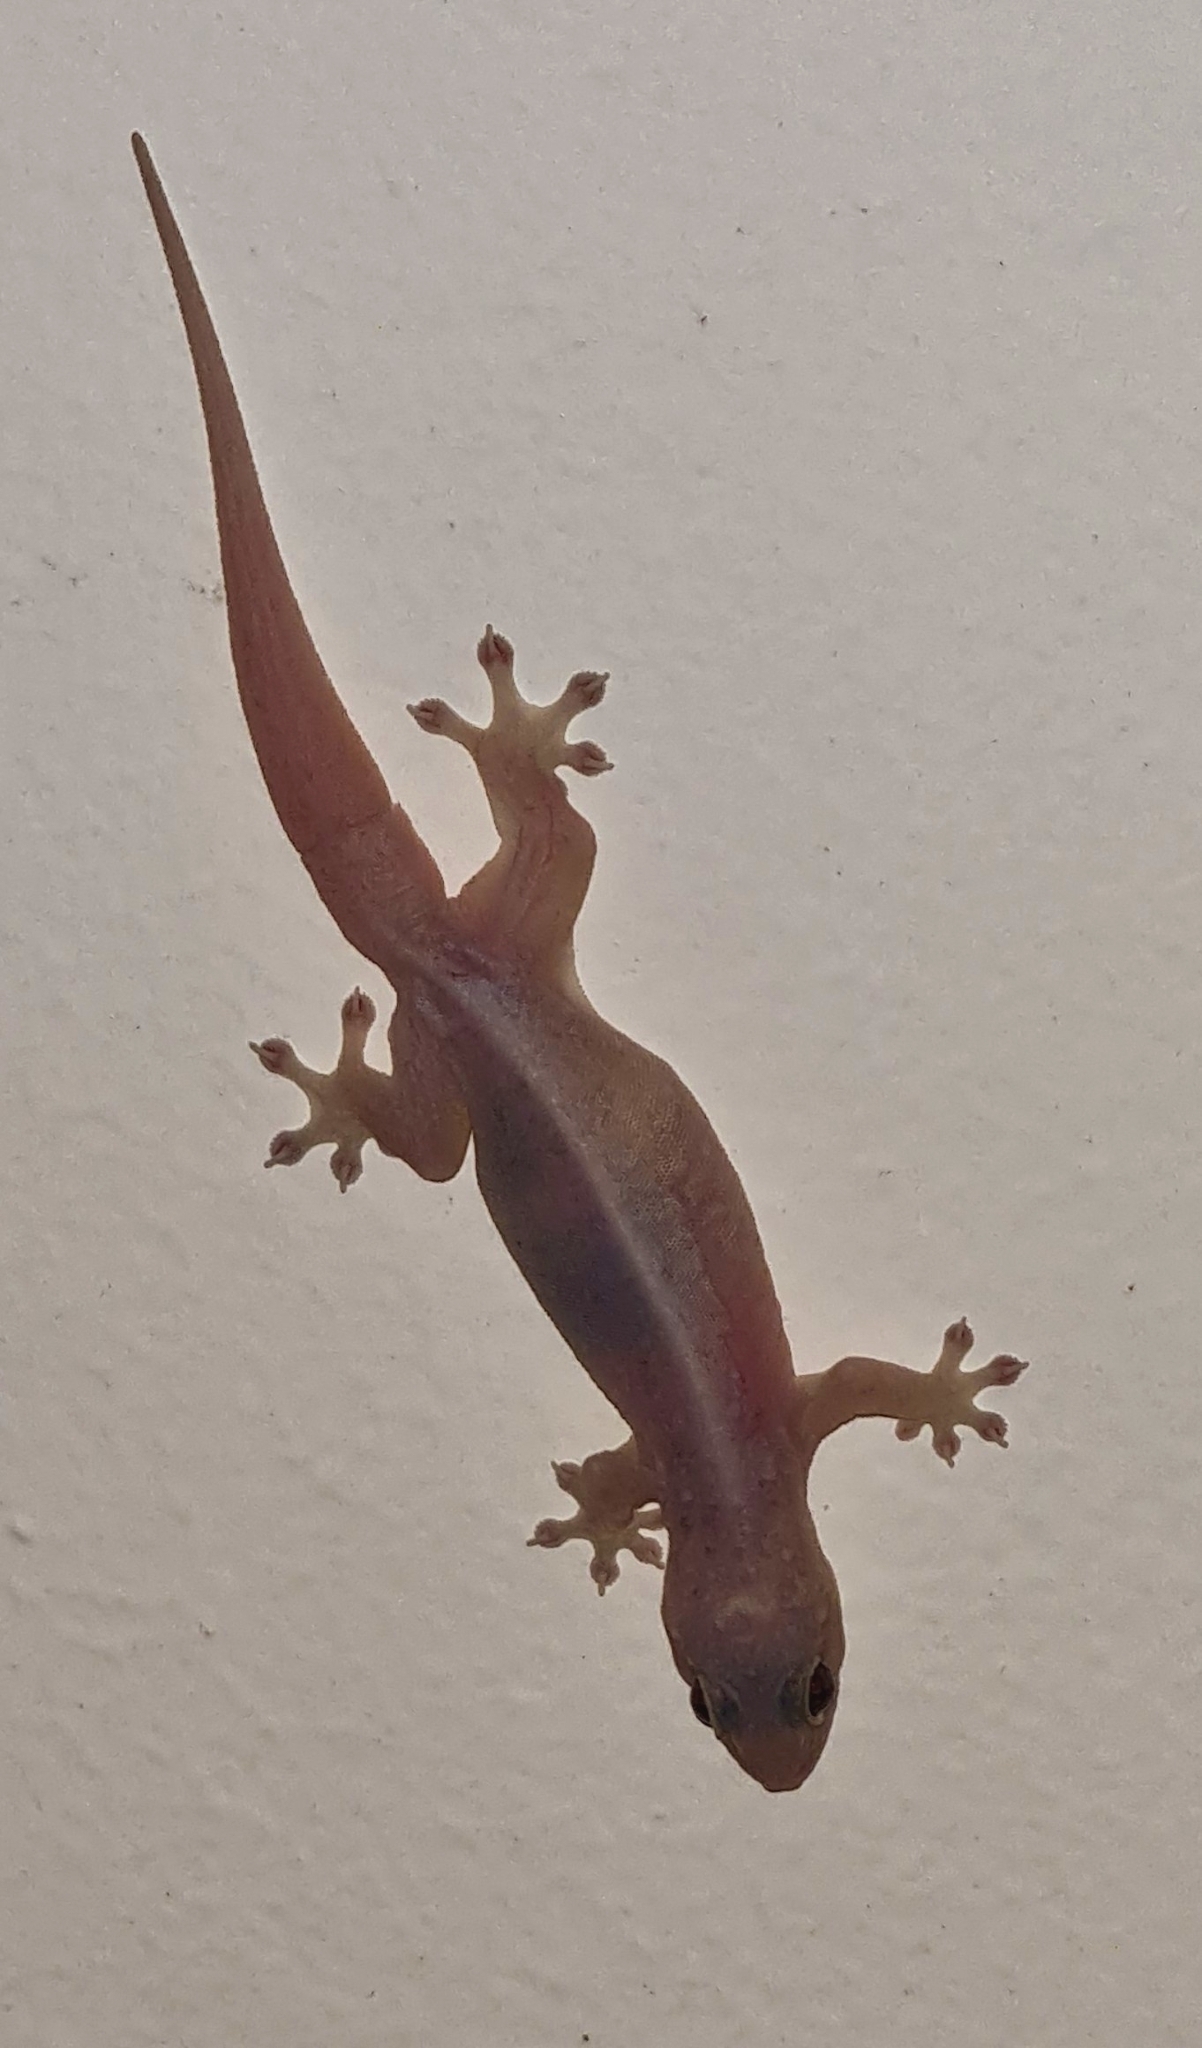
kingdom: Animalia
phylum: Chordata
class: Squamata
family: Gekkonidae
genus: Gehyra
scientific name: Gehyra mutilata
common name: Stump-toed gecko
